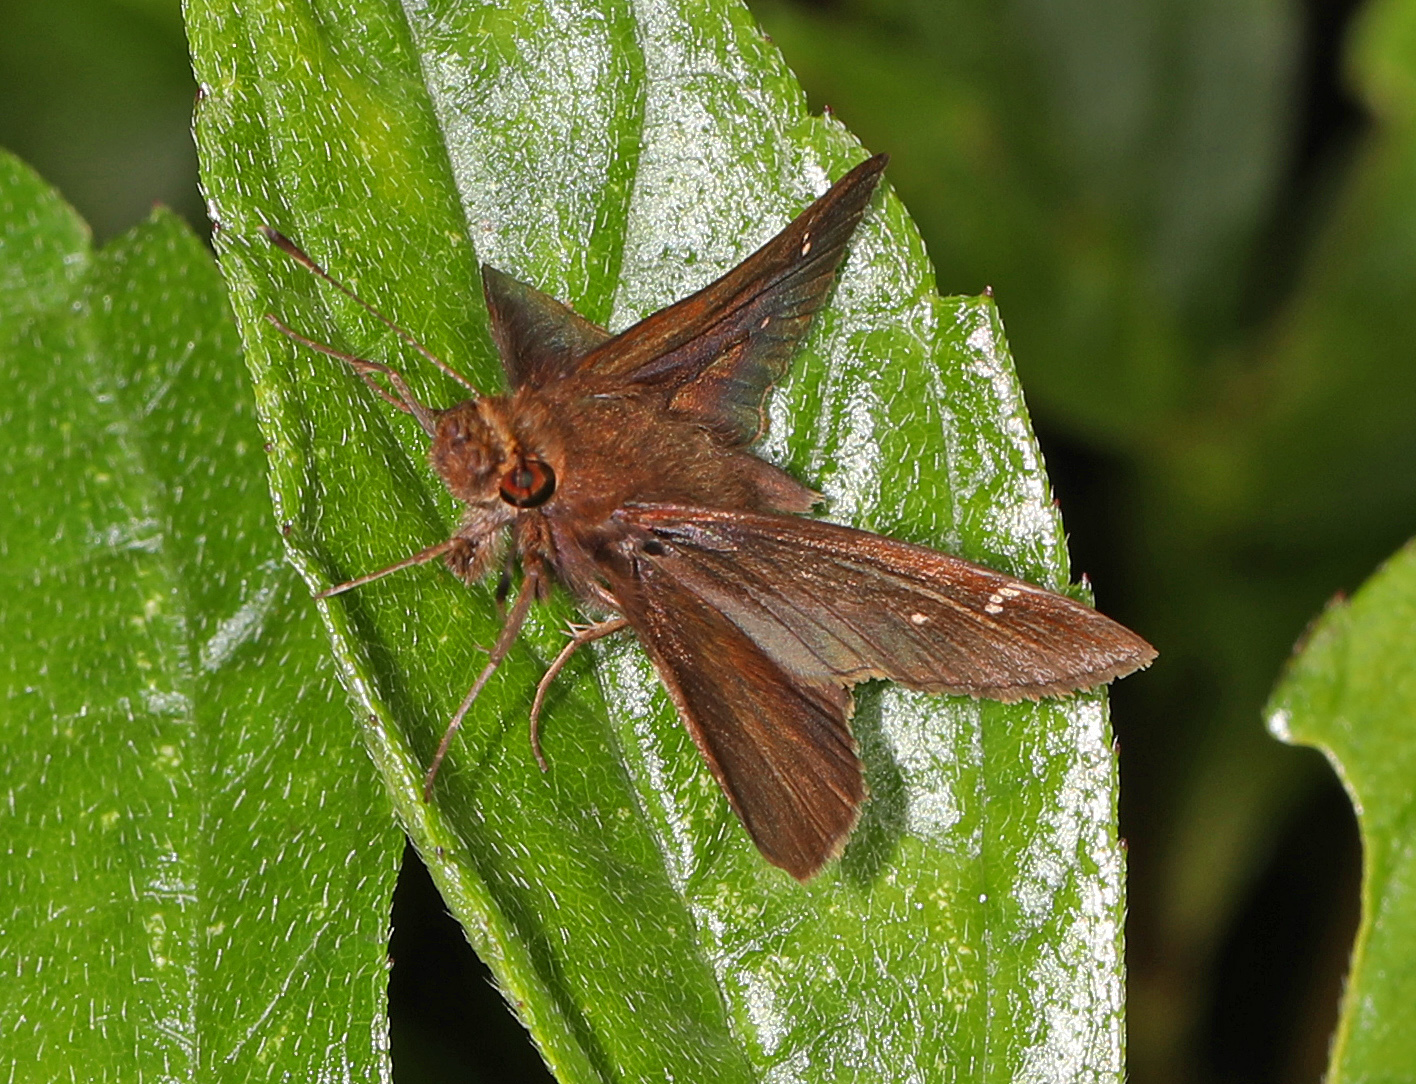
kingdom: Animalia
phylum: Arthropoda
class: Insecta
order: Lepidoptera
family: Hesperiidae
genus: Lerema
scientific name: Lerema accius
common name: Clouded skipper
